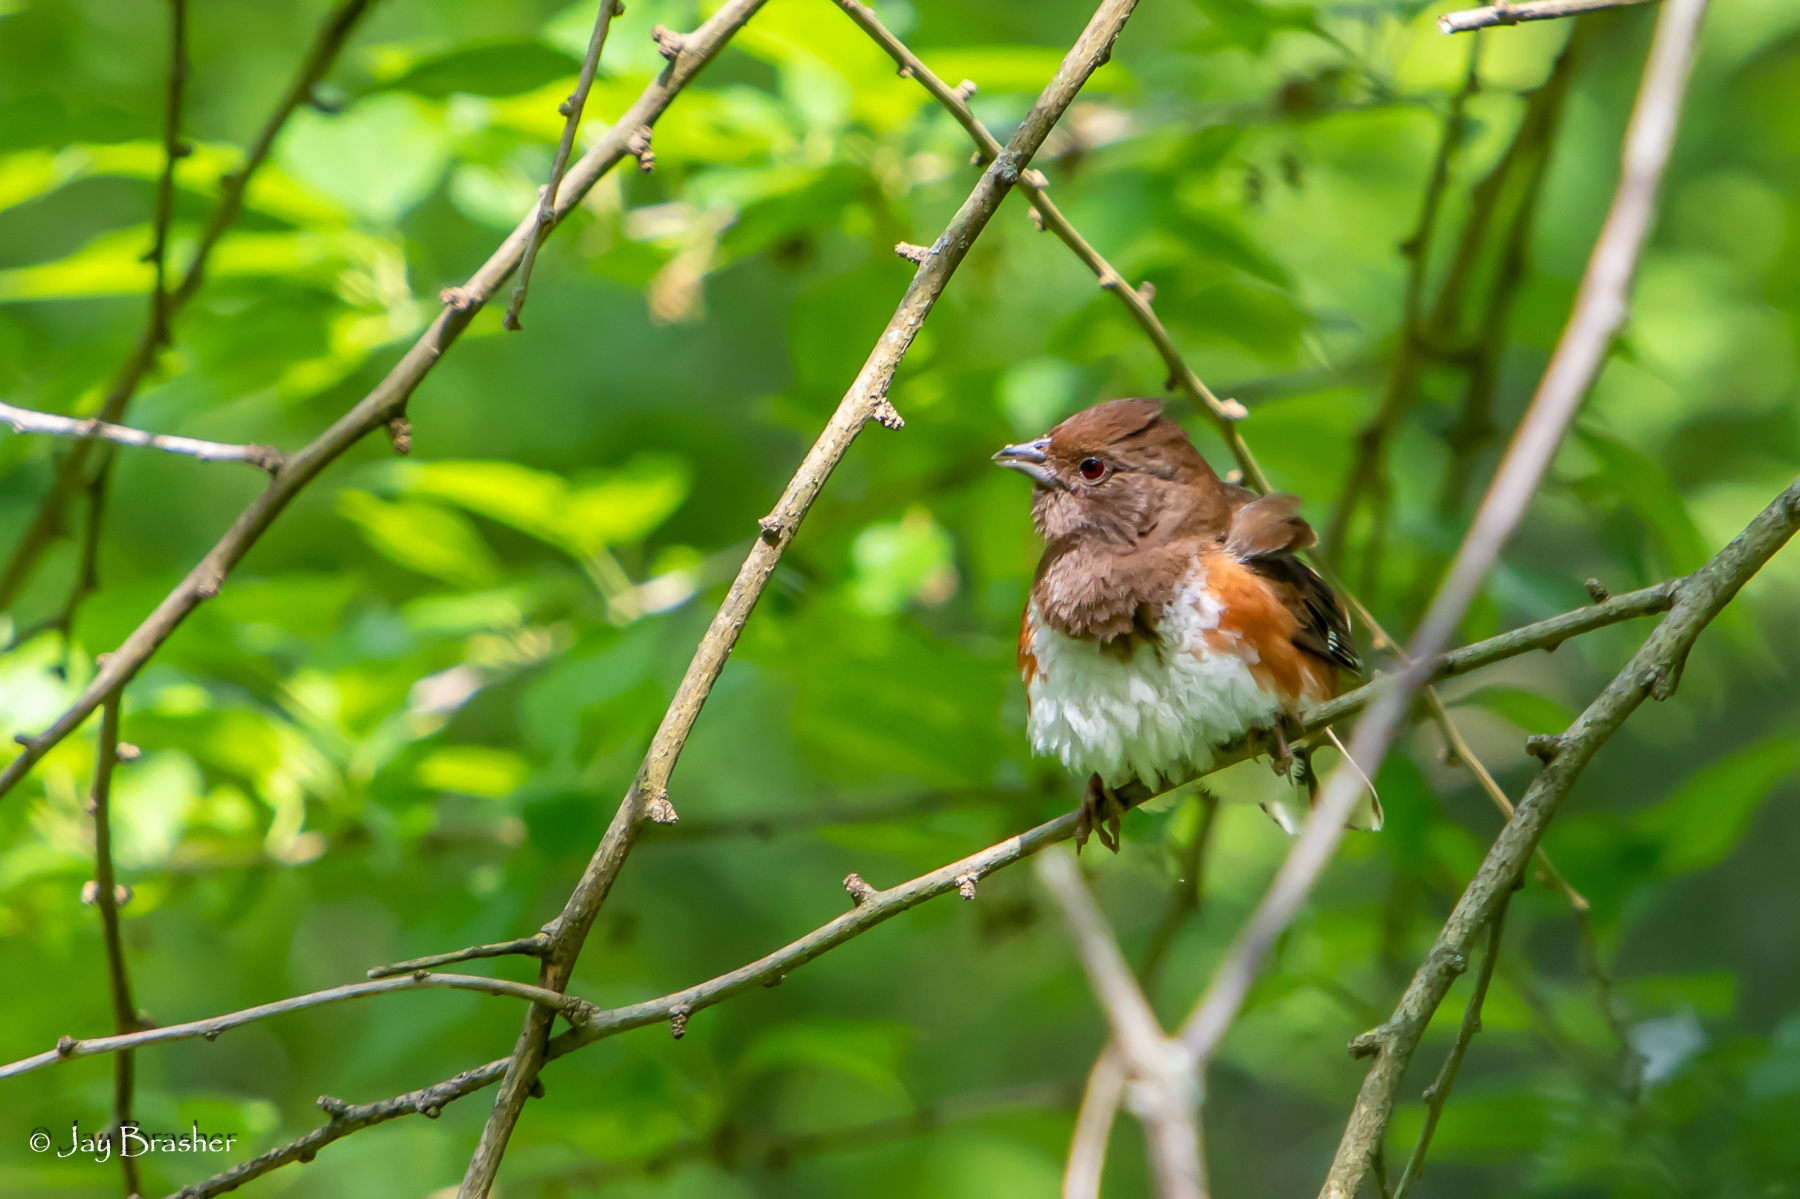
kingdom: Animalia
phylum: Chordata
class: Aves
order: Passeriformes
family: Passerellidae
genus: Pipilo
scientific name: Pipilo erythrophthalmus
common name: Eastern towhee
